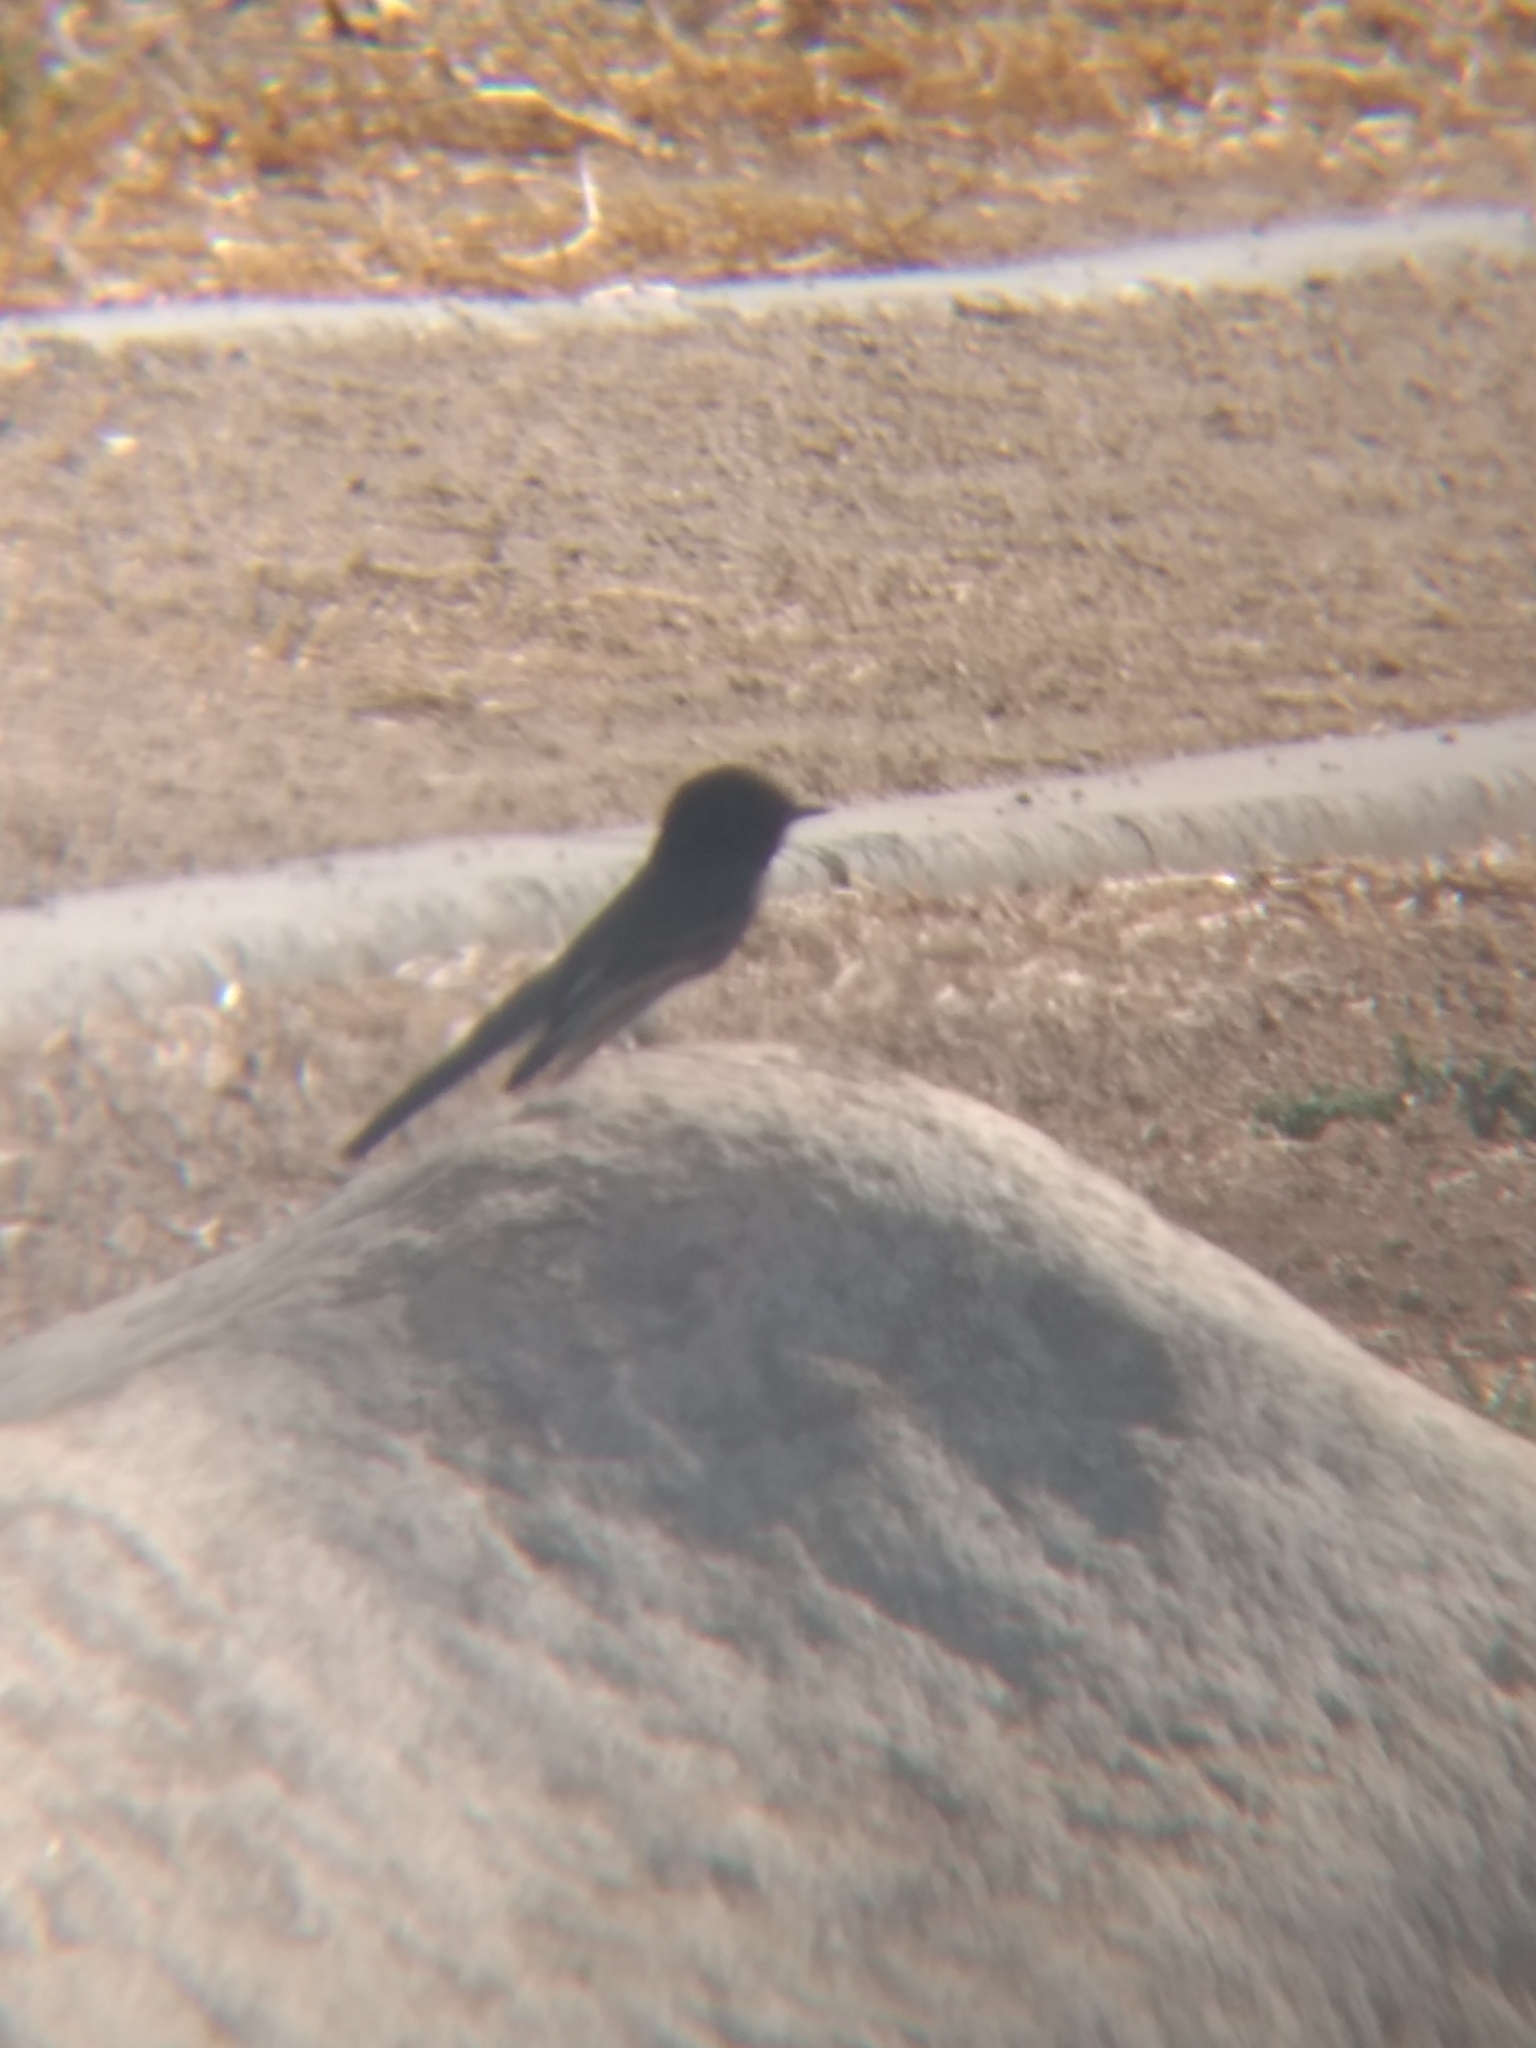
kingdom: Animalia
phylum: Chordata
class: Aves
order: Passeriformes
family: Tyrannidae
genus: Sayornis
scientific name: Sayornis nigricans
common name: Black phoebe
